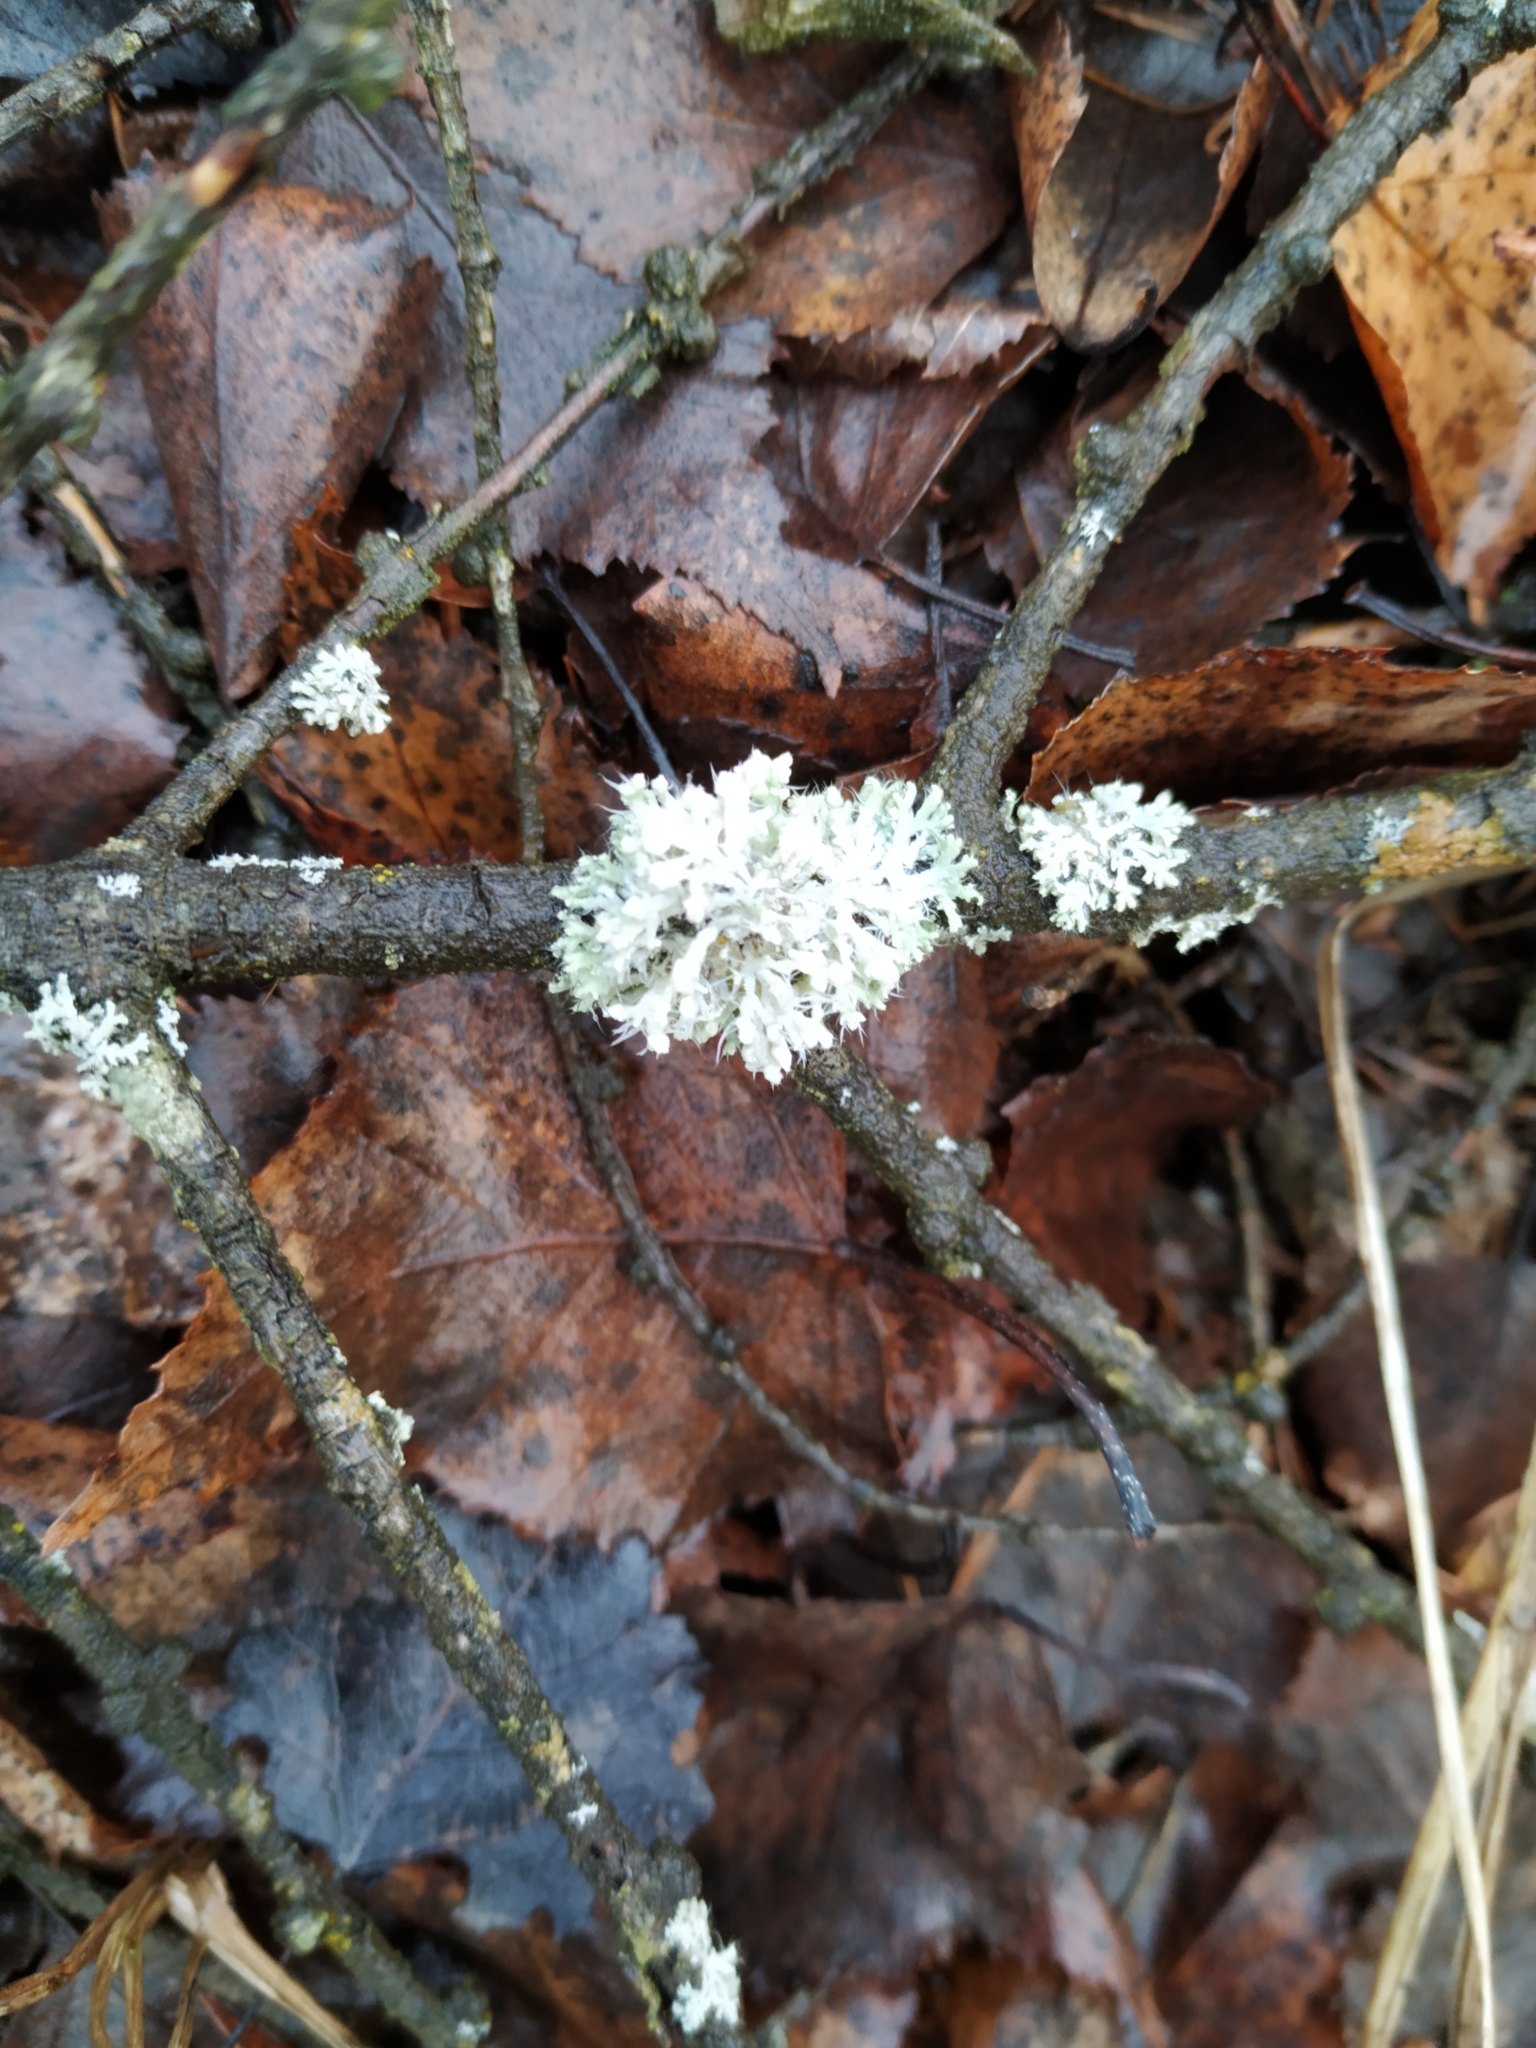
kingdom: Fungi
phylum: Ascomycota
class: Lecanoromycetes
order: Caliciales
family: Physciaceae
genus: Physcia
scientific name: Physcia adscendens
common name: Hooded rosette lichen
